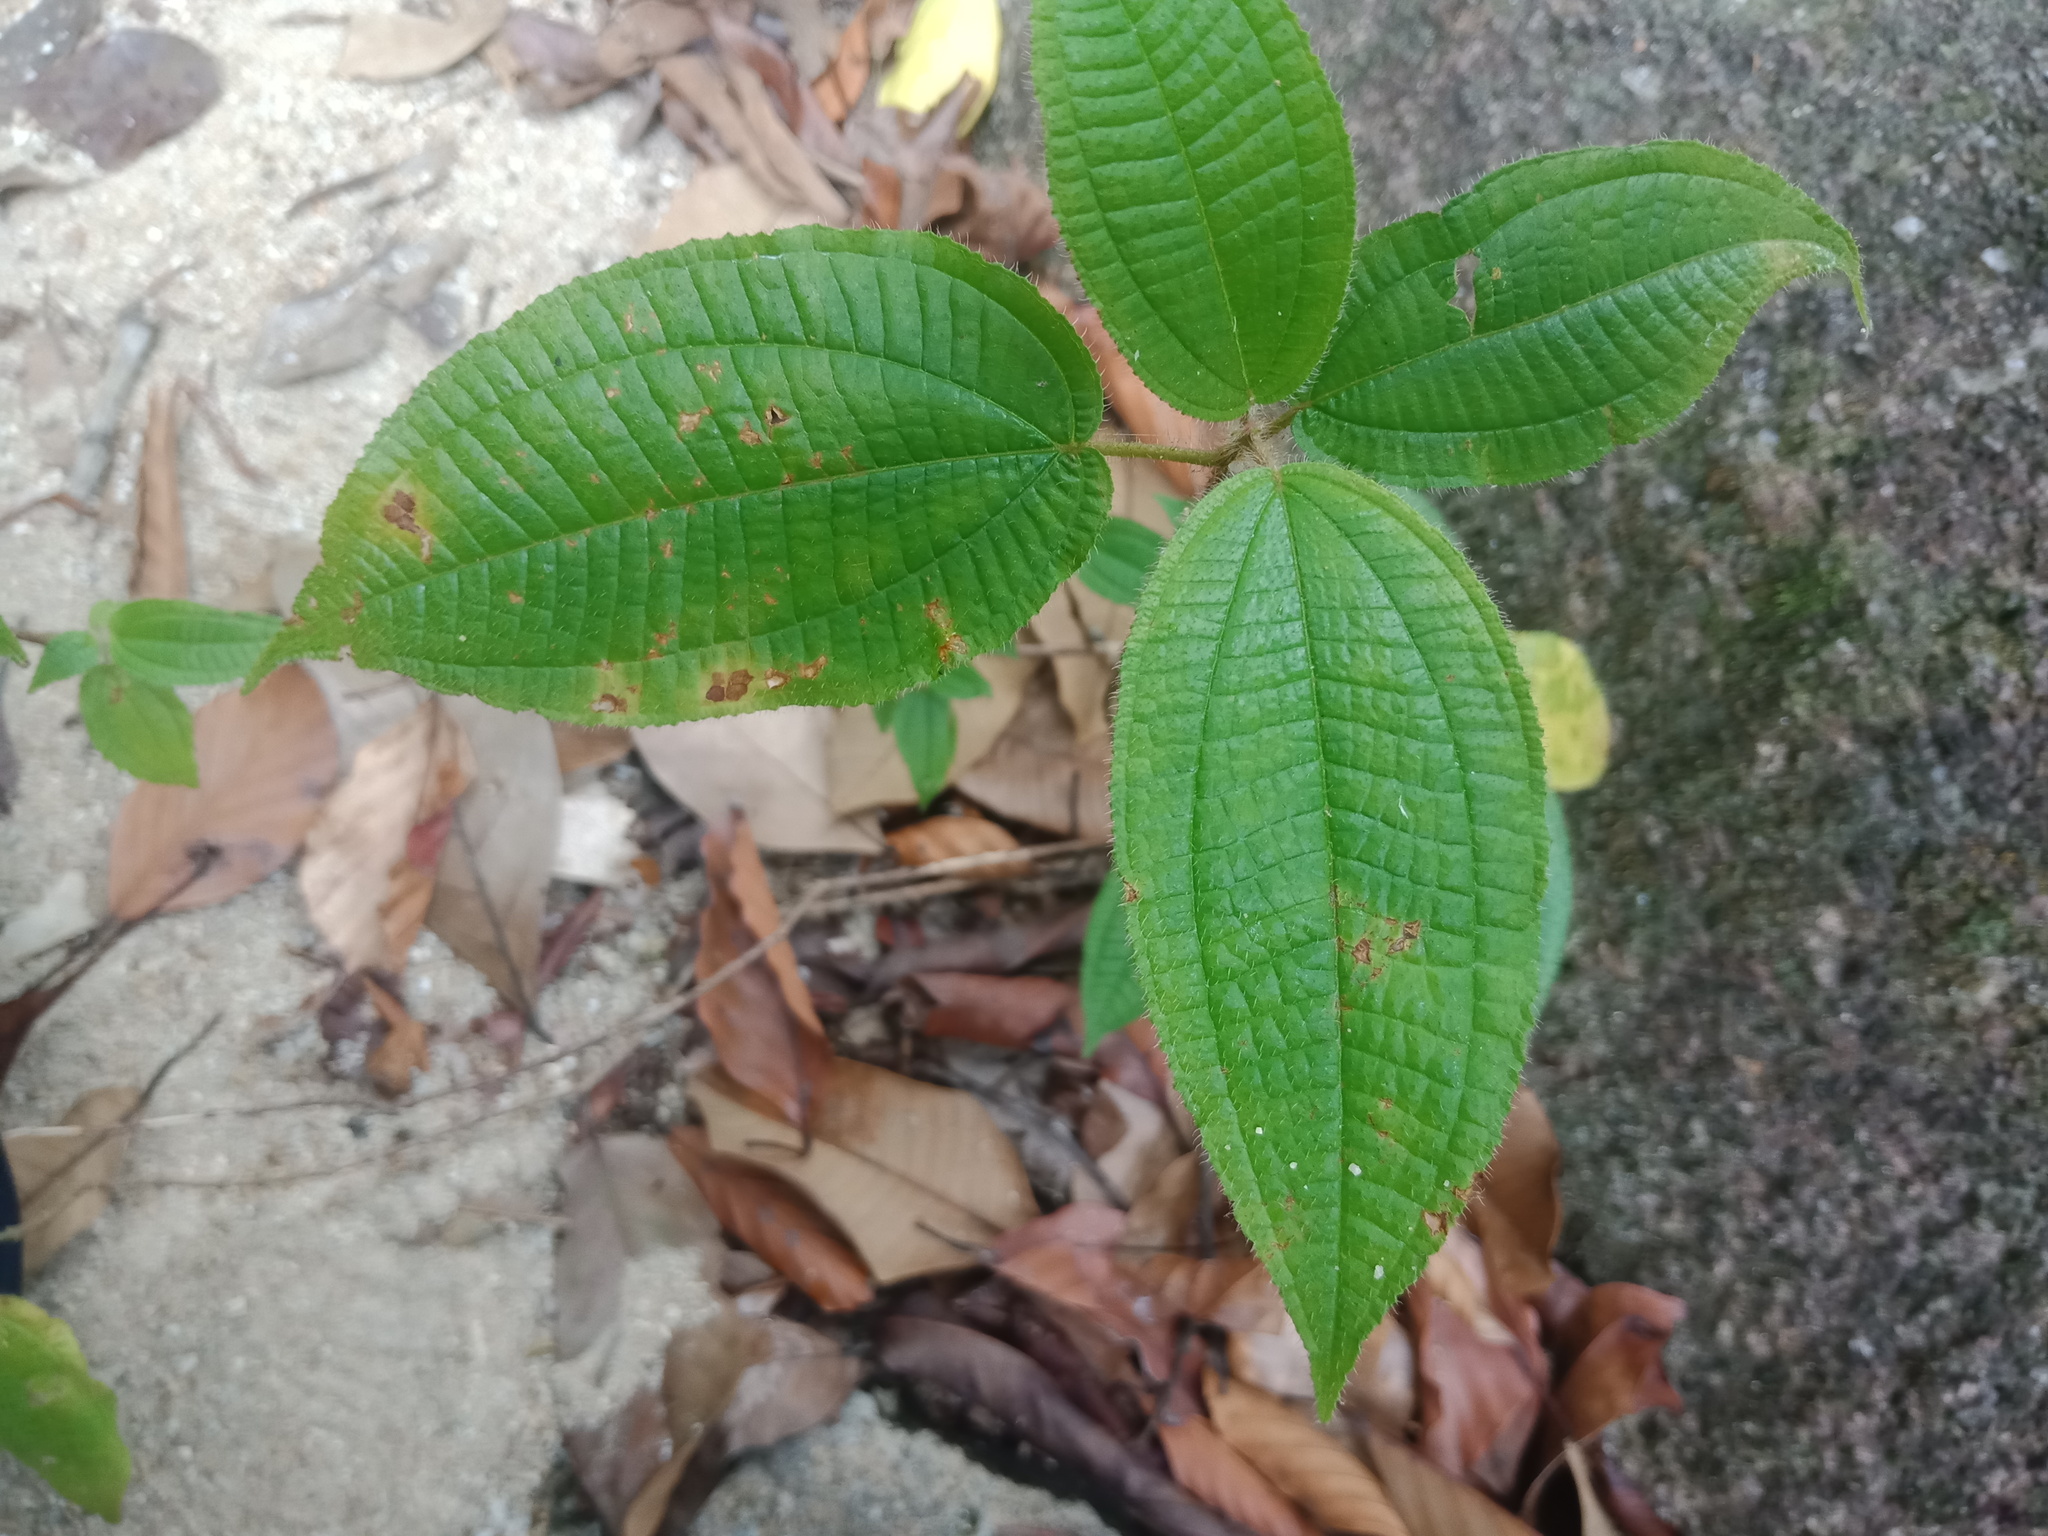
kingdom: Plantae
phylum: Tracheophyta
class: Magnoliopsida
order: Myrtales
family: Melastomataceae
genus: Miconia
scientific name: Miconia crenata
